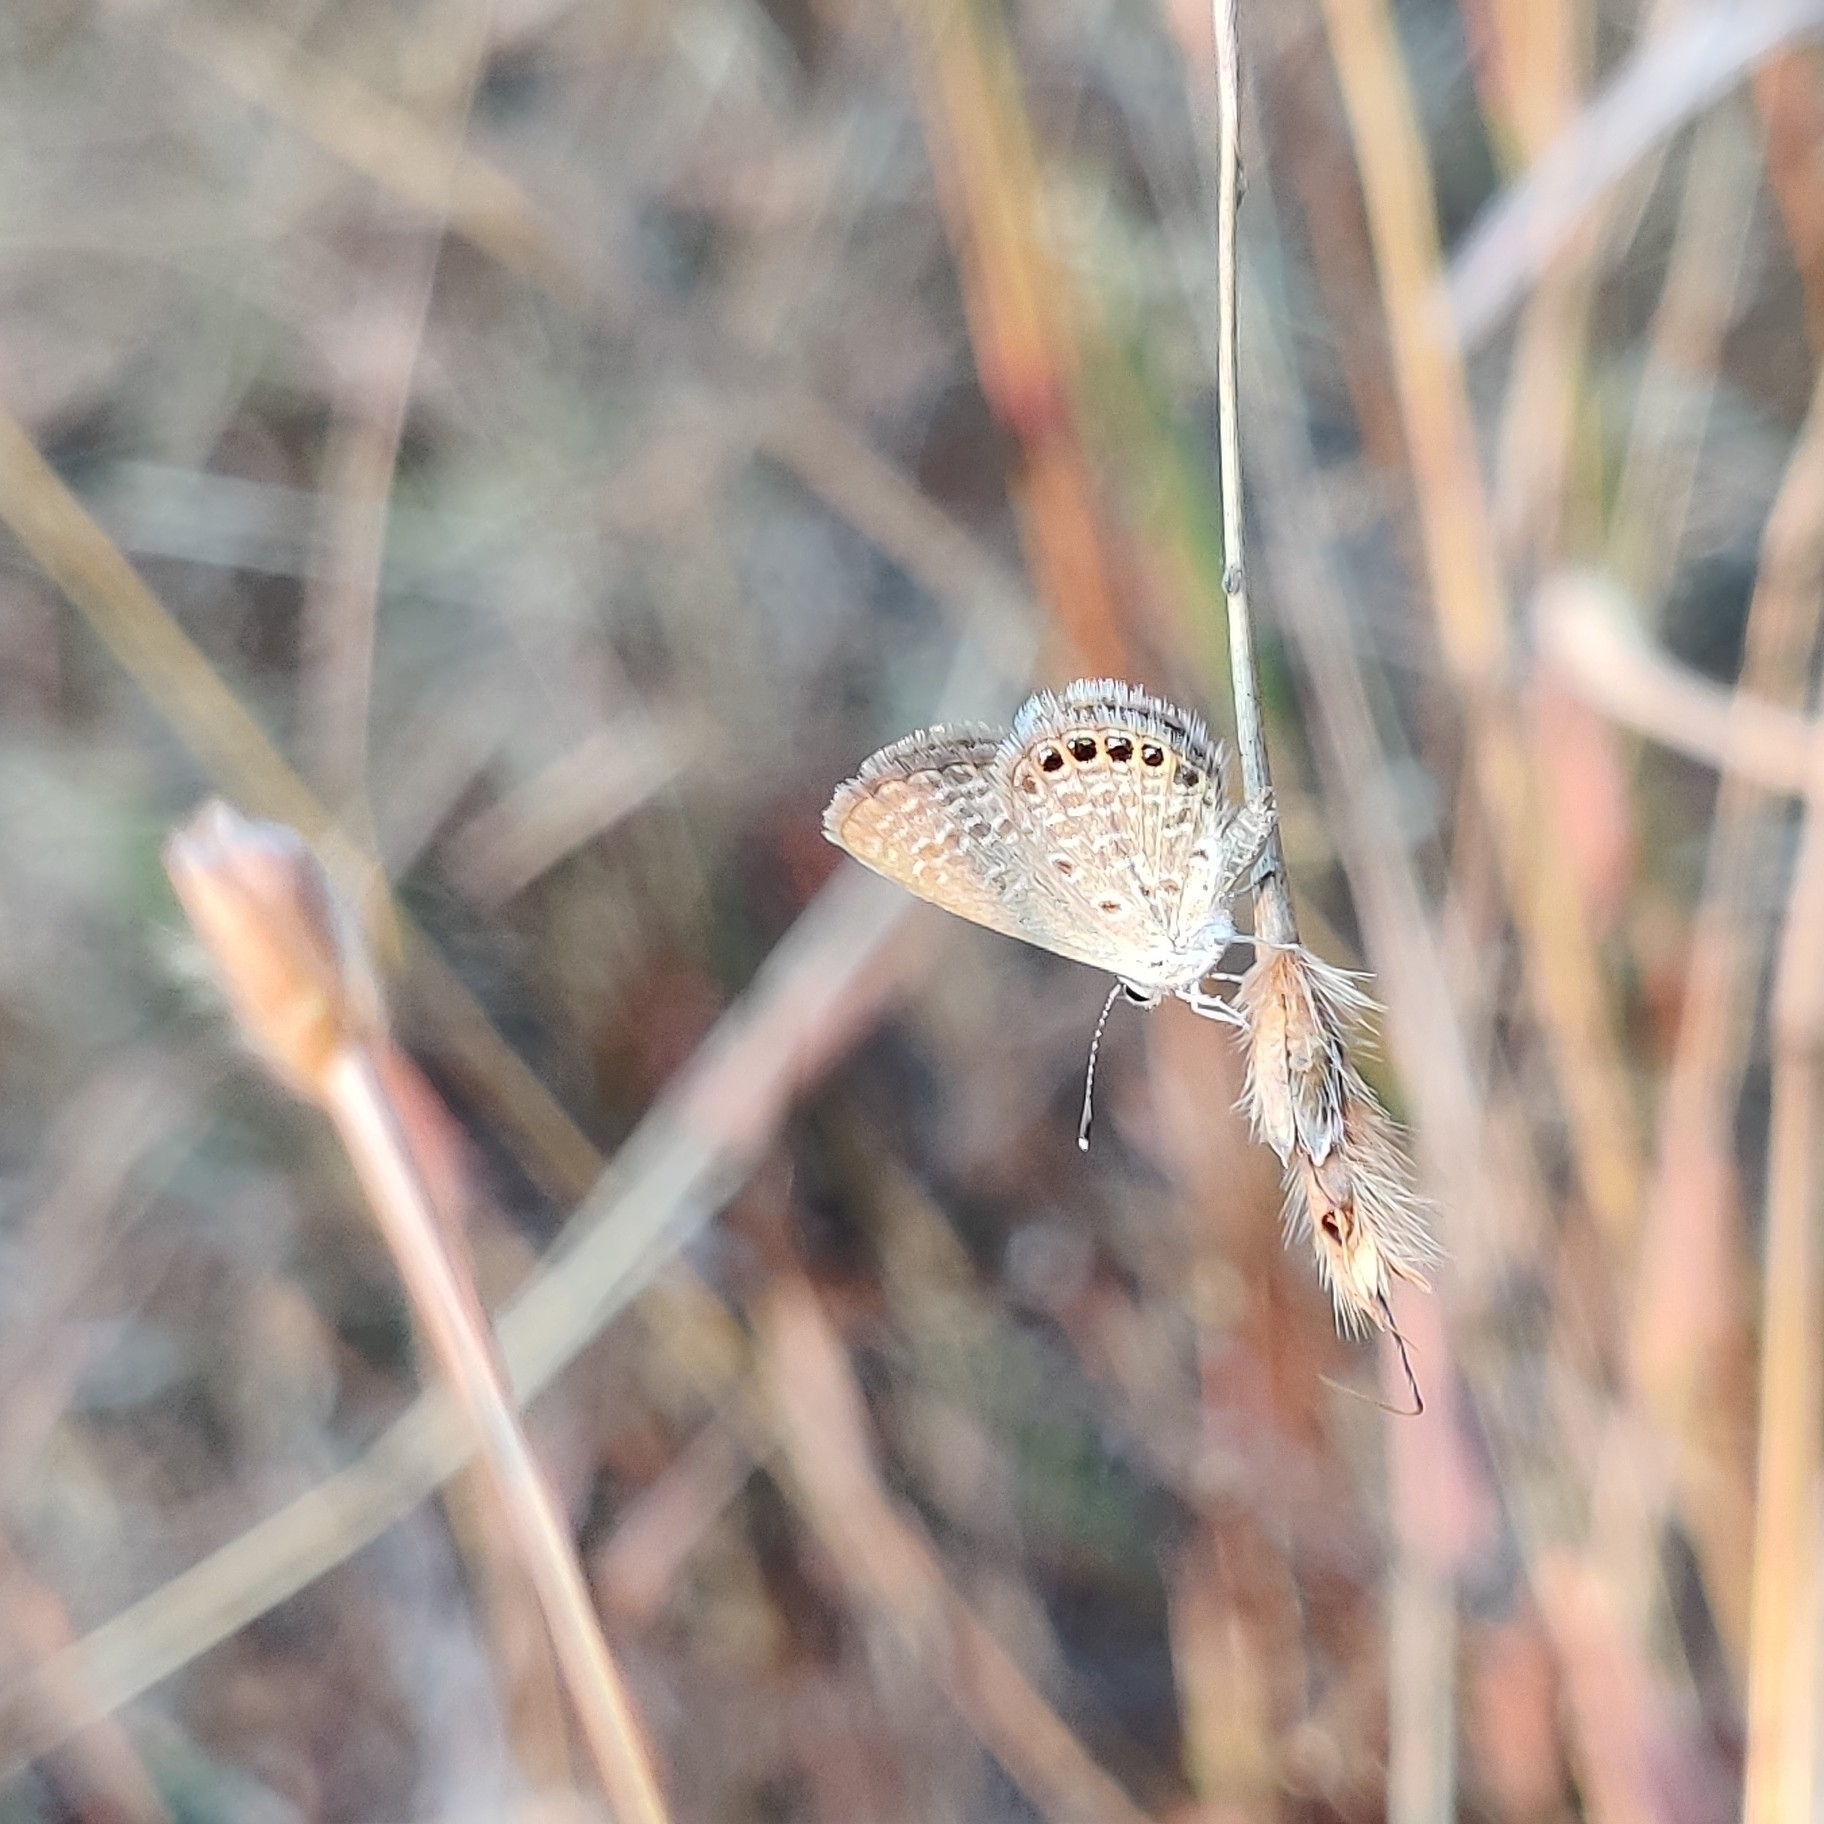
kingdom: Animalia
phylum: Arthropoda
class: Insecta
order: Lepidoptera
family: Lycaenidae
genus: Freyeria
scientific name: Freyeria putli
